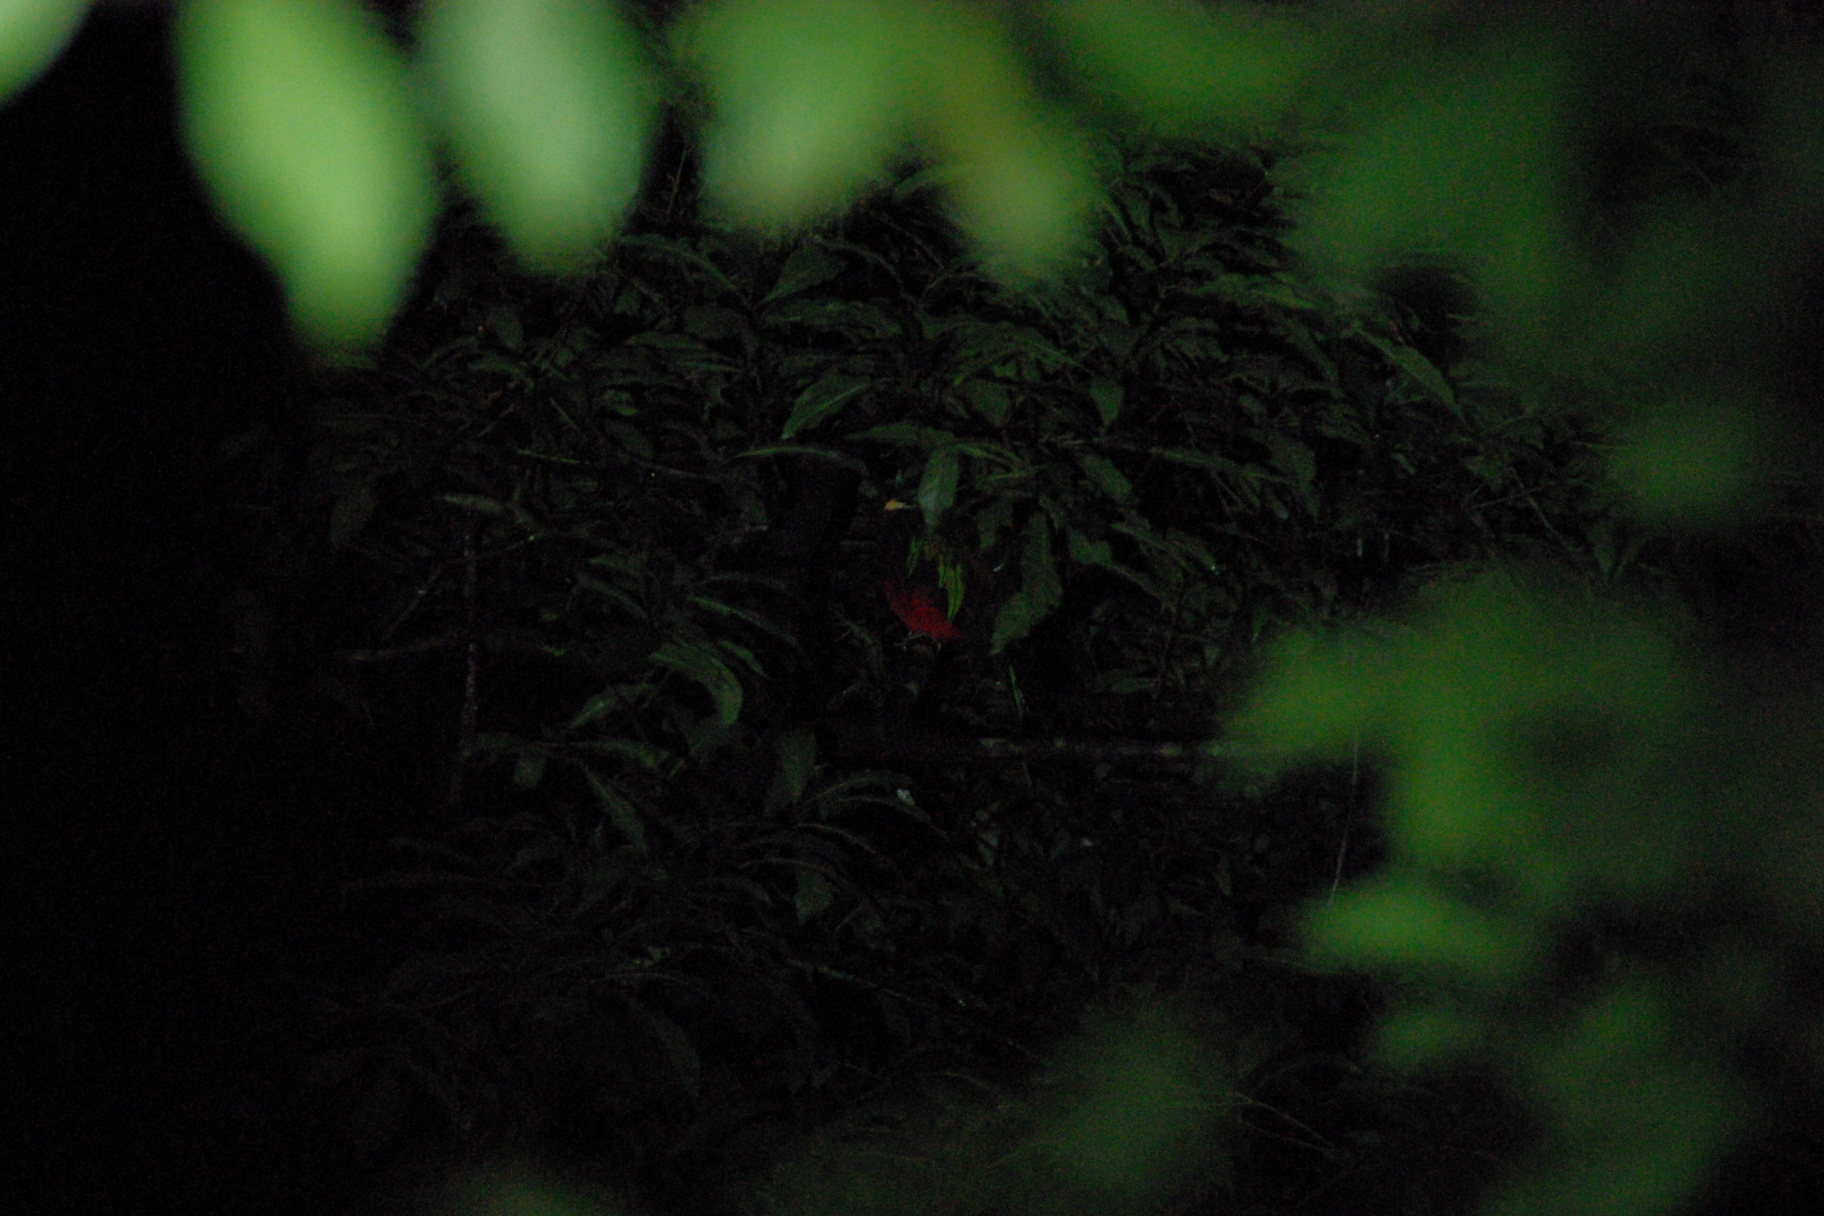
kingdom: Animalia
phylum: Chordata
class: Aves
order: Trogoniformes
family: Trogonidae
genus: Pharomachrus
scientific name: Pharomachrus mocinno
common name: Resplendent quetzal
